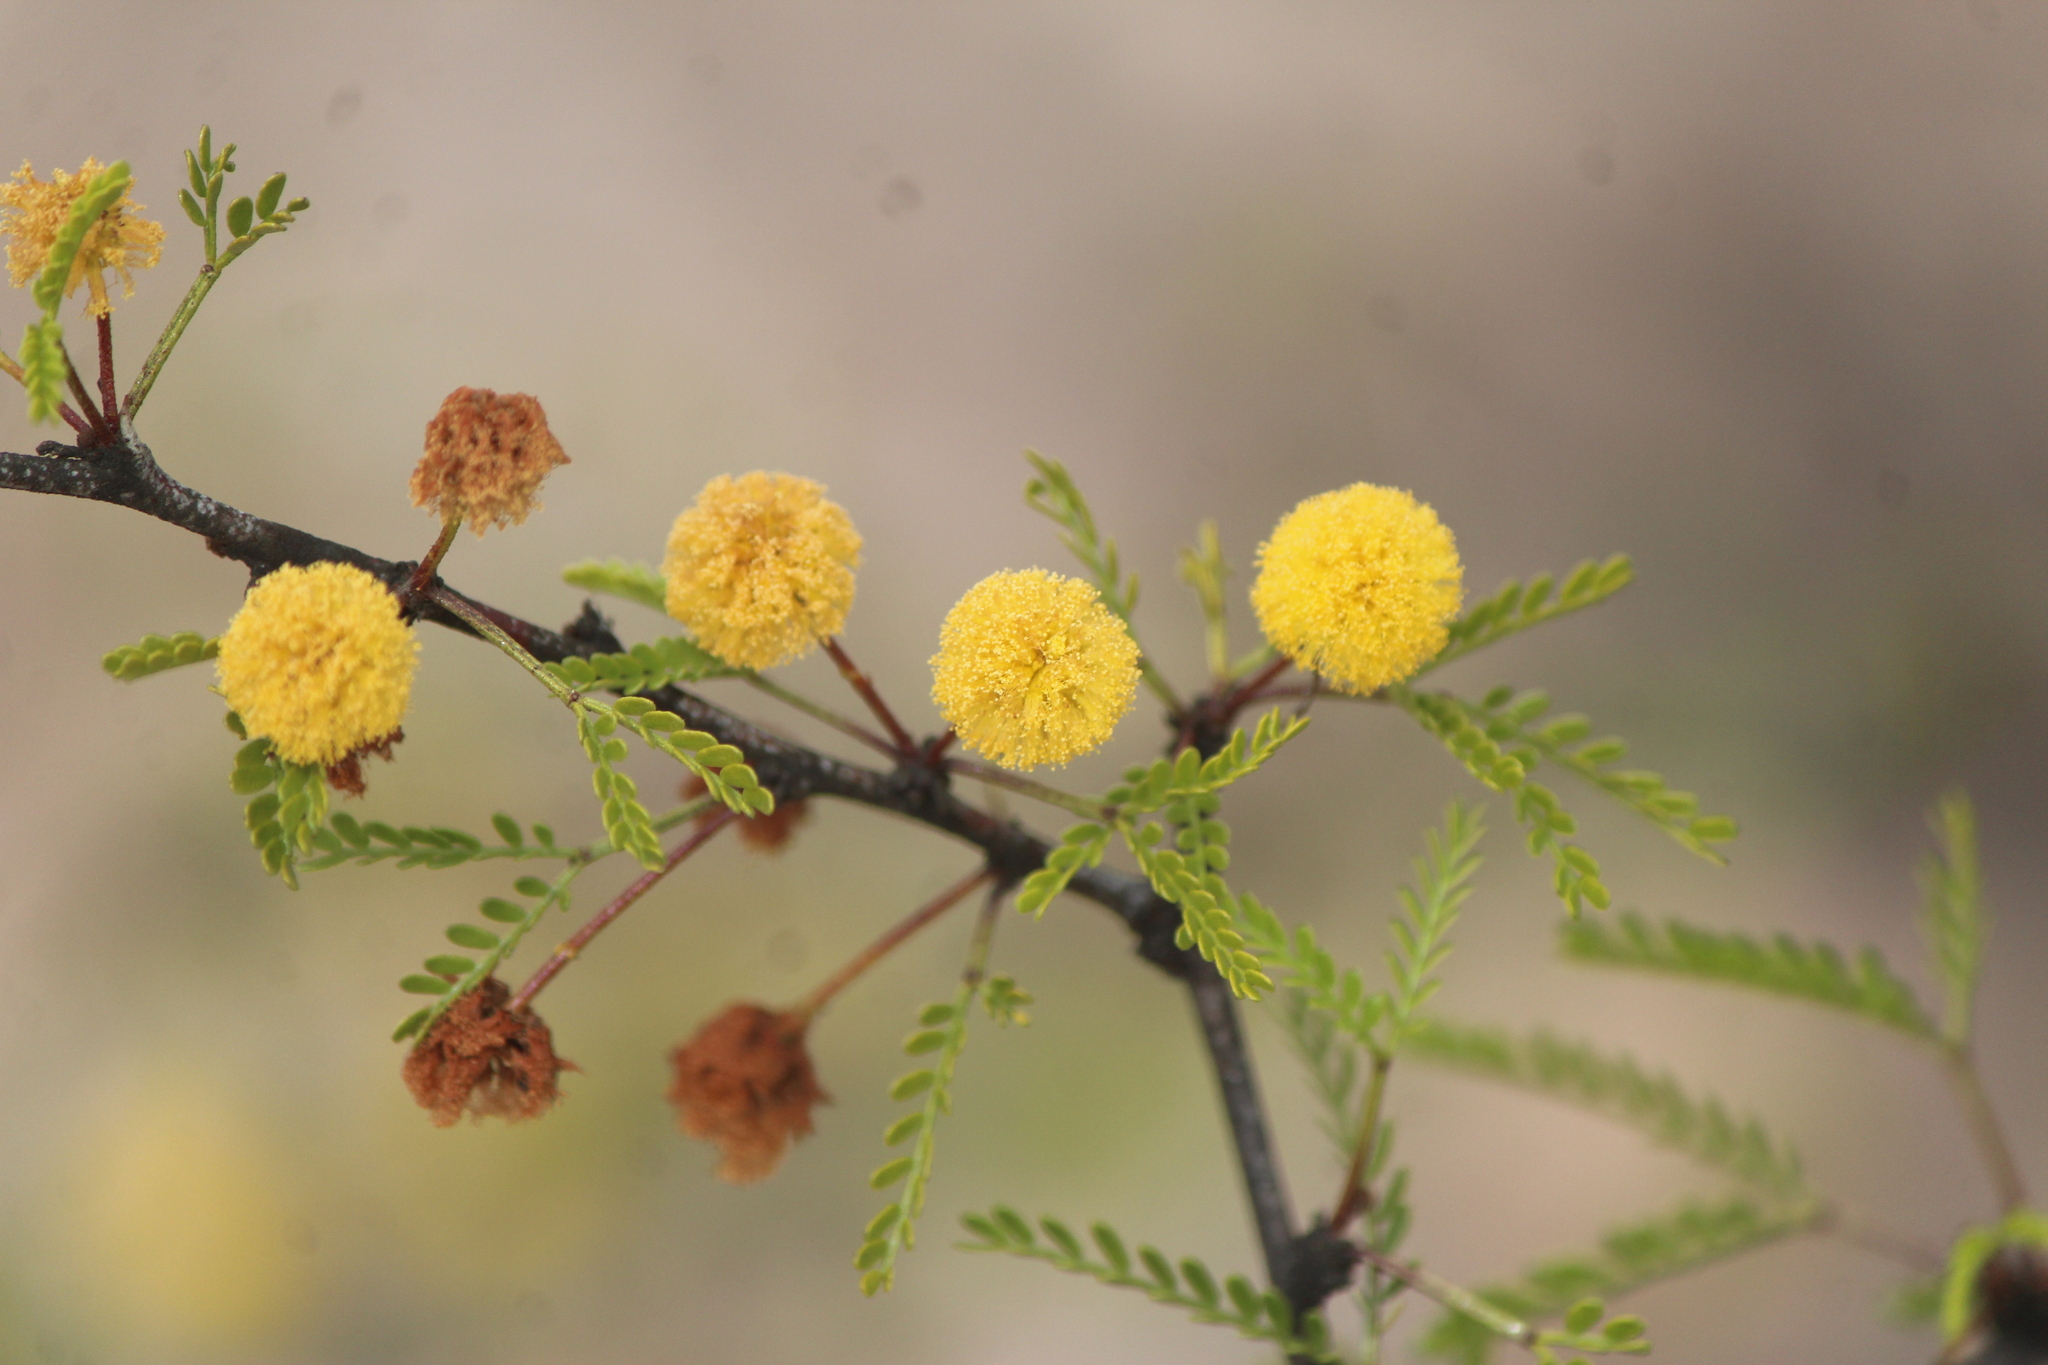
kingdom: Plantae
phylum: Tracheophyta
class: Magnoliopsida
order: Fabales
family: Fabaceae
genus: Vachellia
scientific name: Vachellia constricta
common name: Mescat acacia
